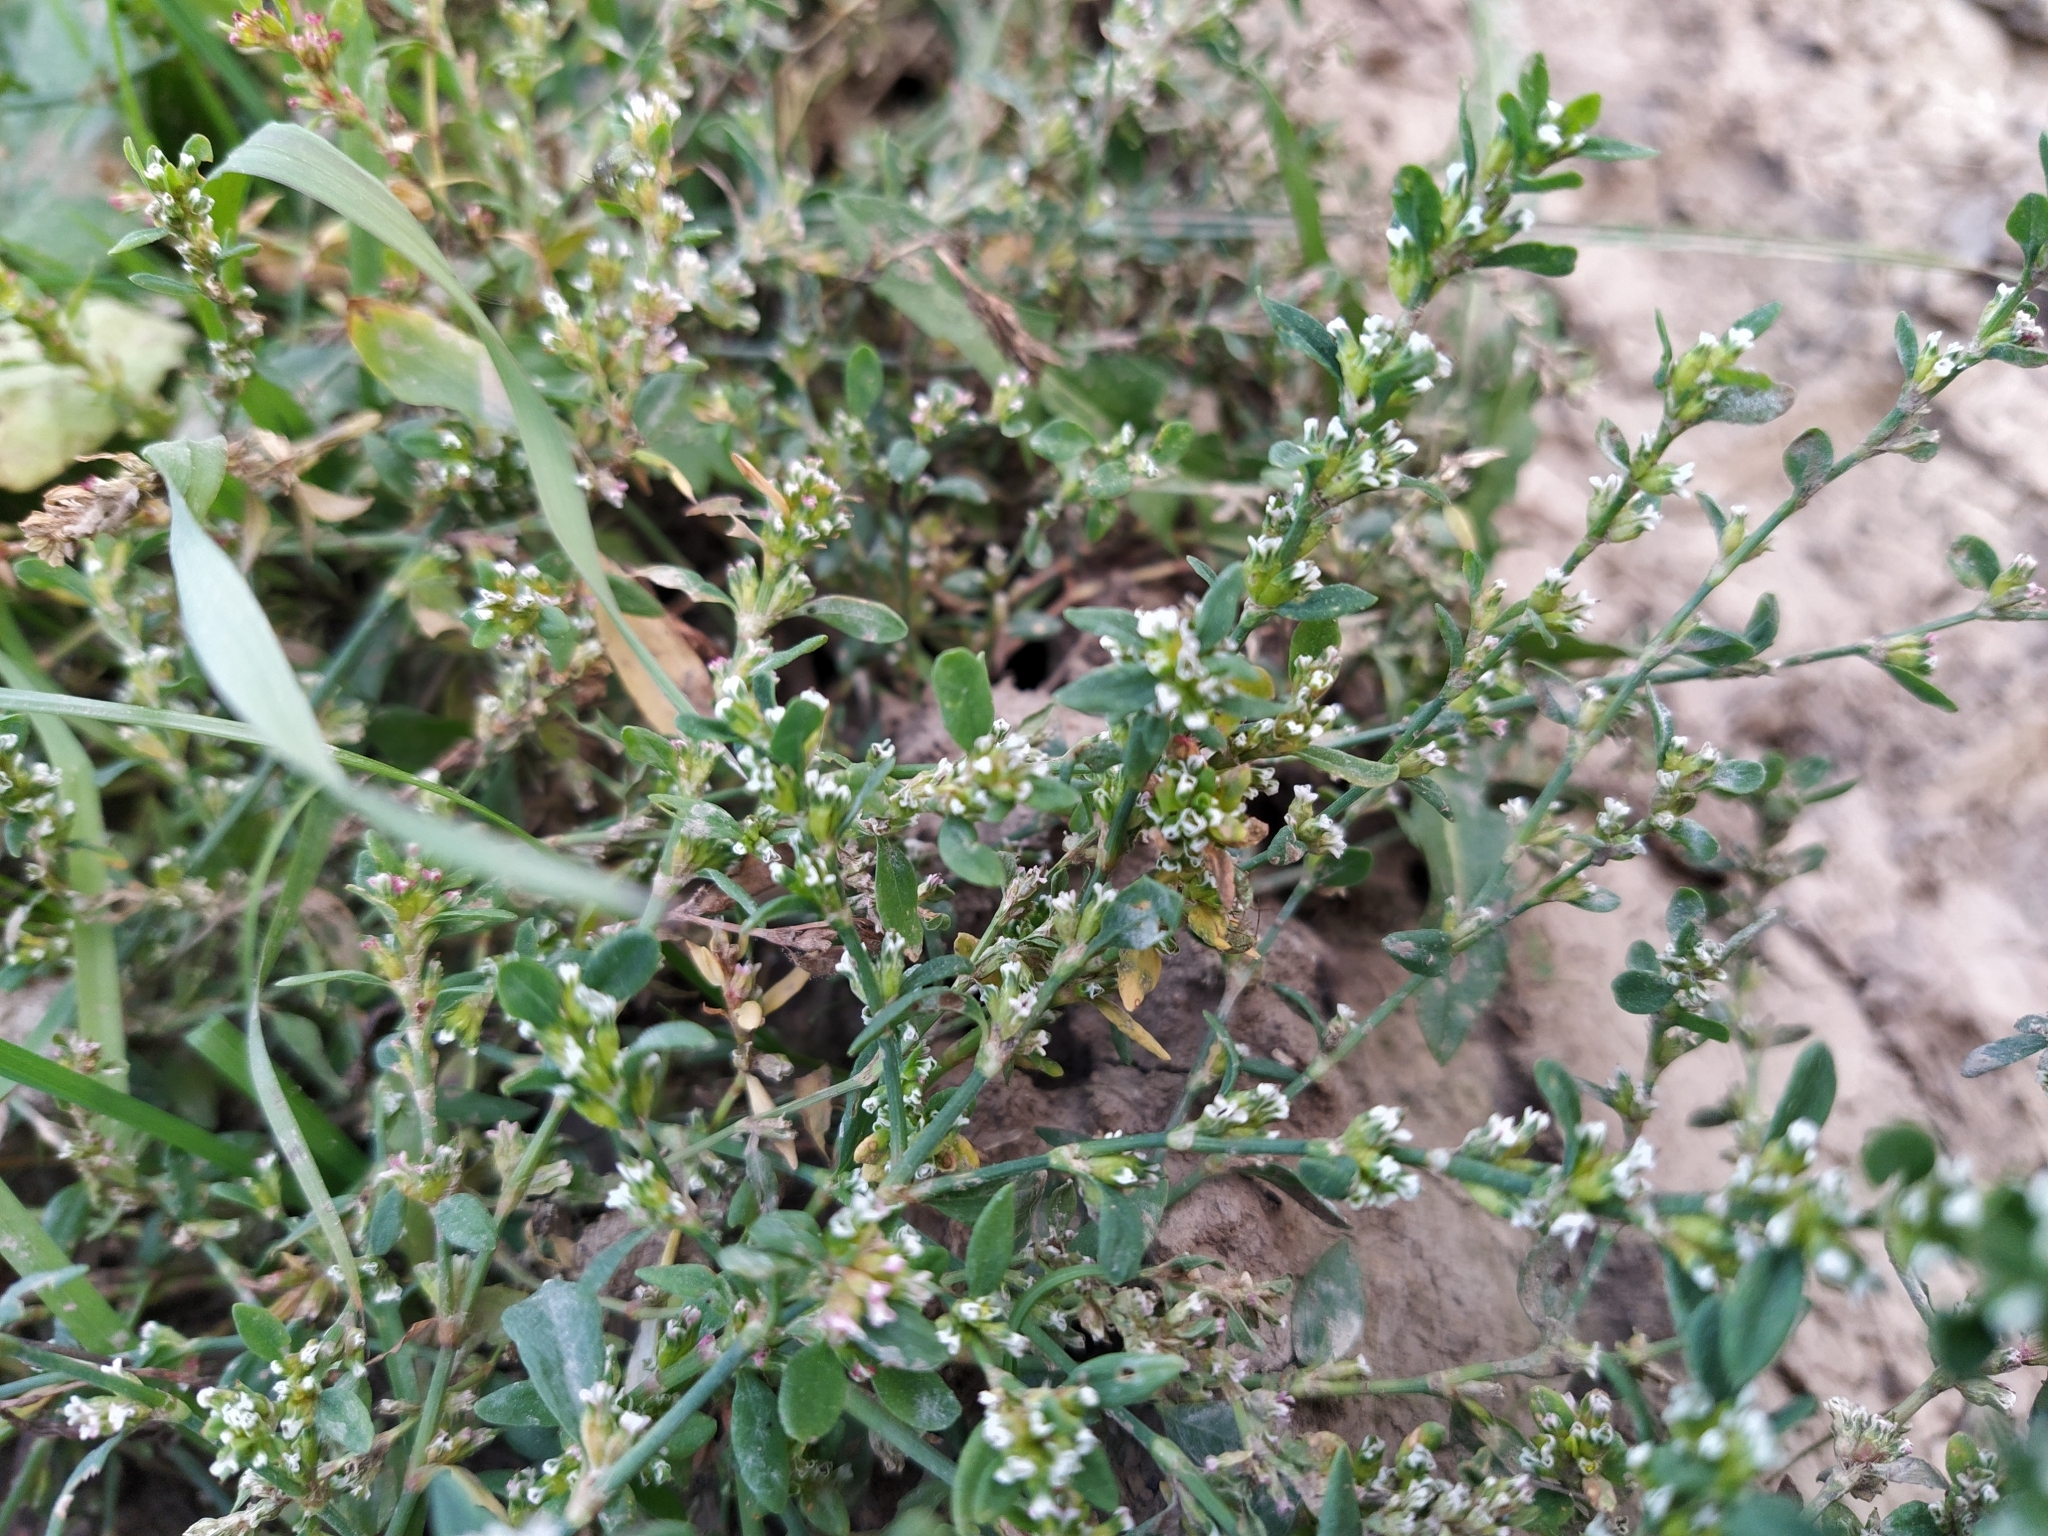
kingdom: Plantae
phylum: Tracheophyta
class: Magnoliopsida
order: Caryophyllales
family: Polygonaceae
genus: Polygonum
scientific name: Polygonum
